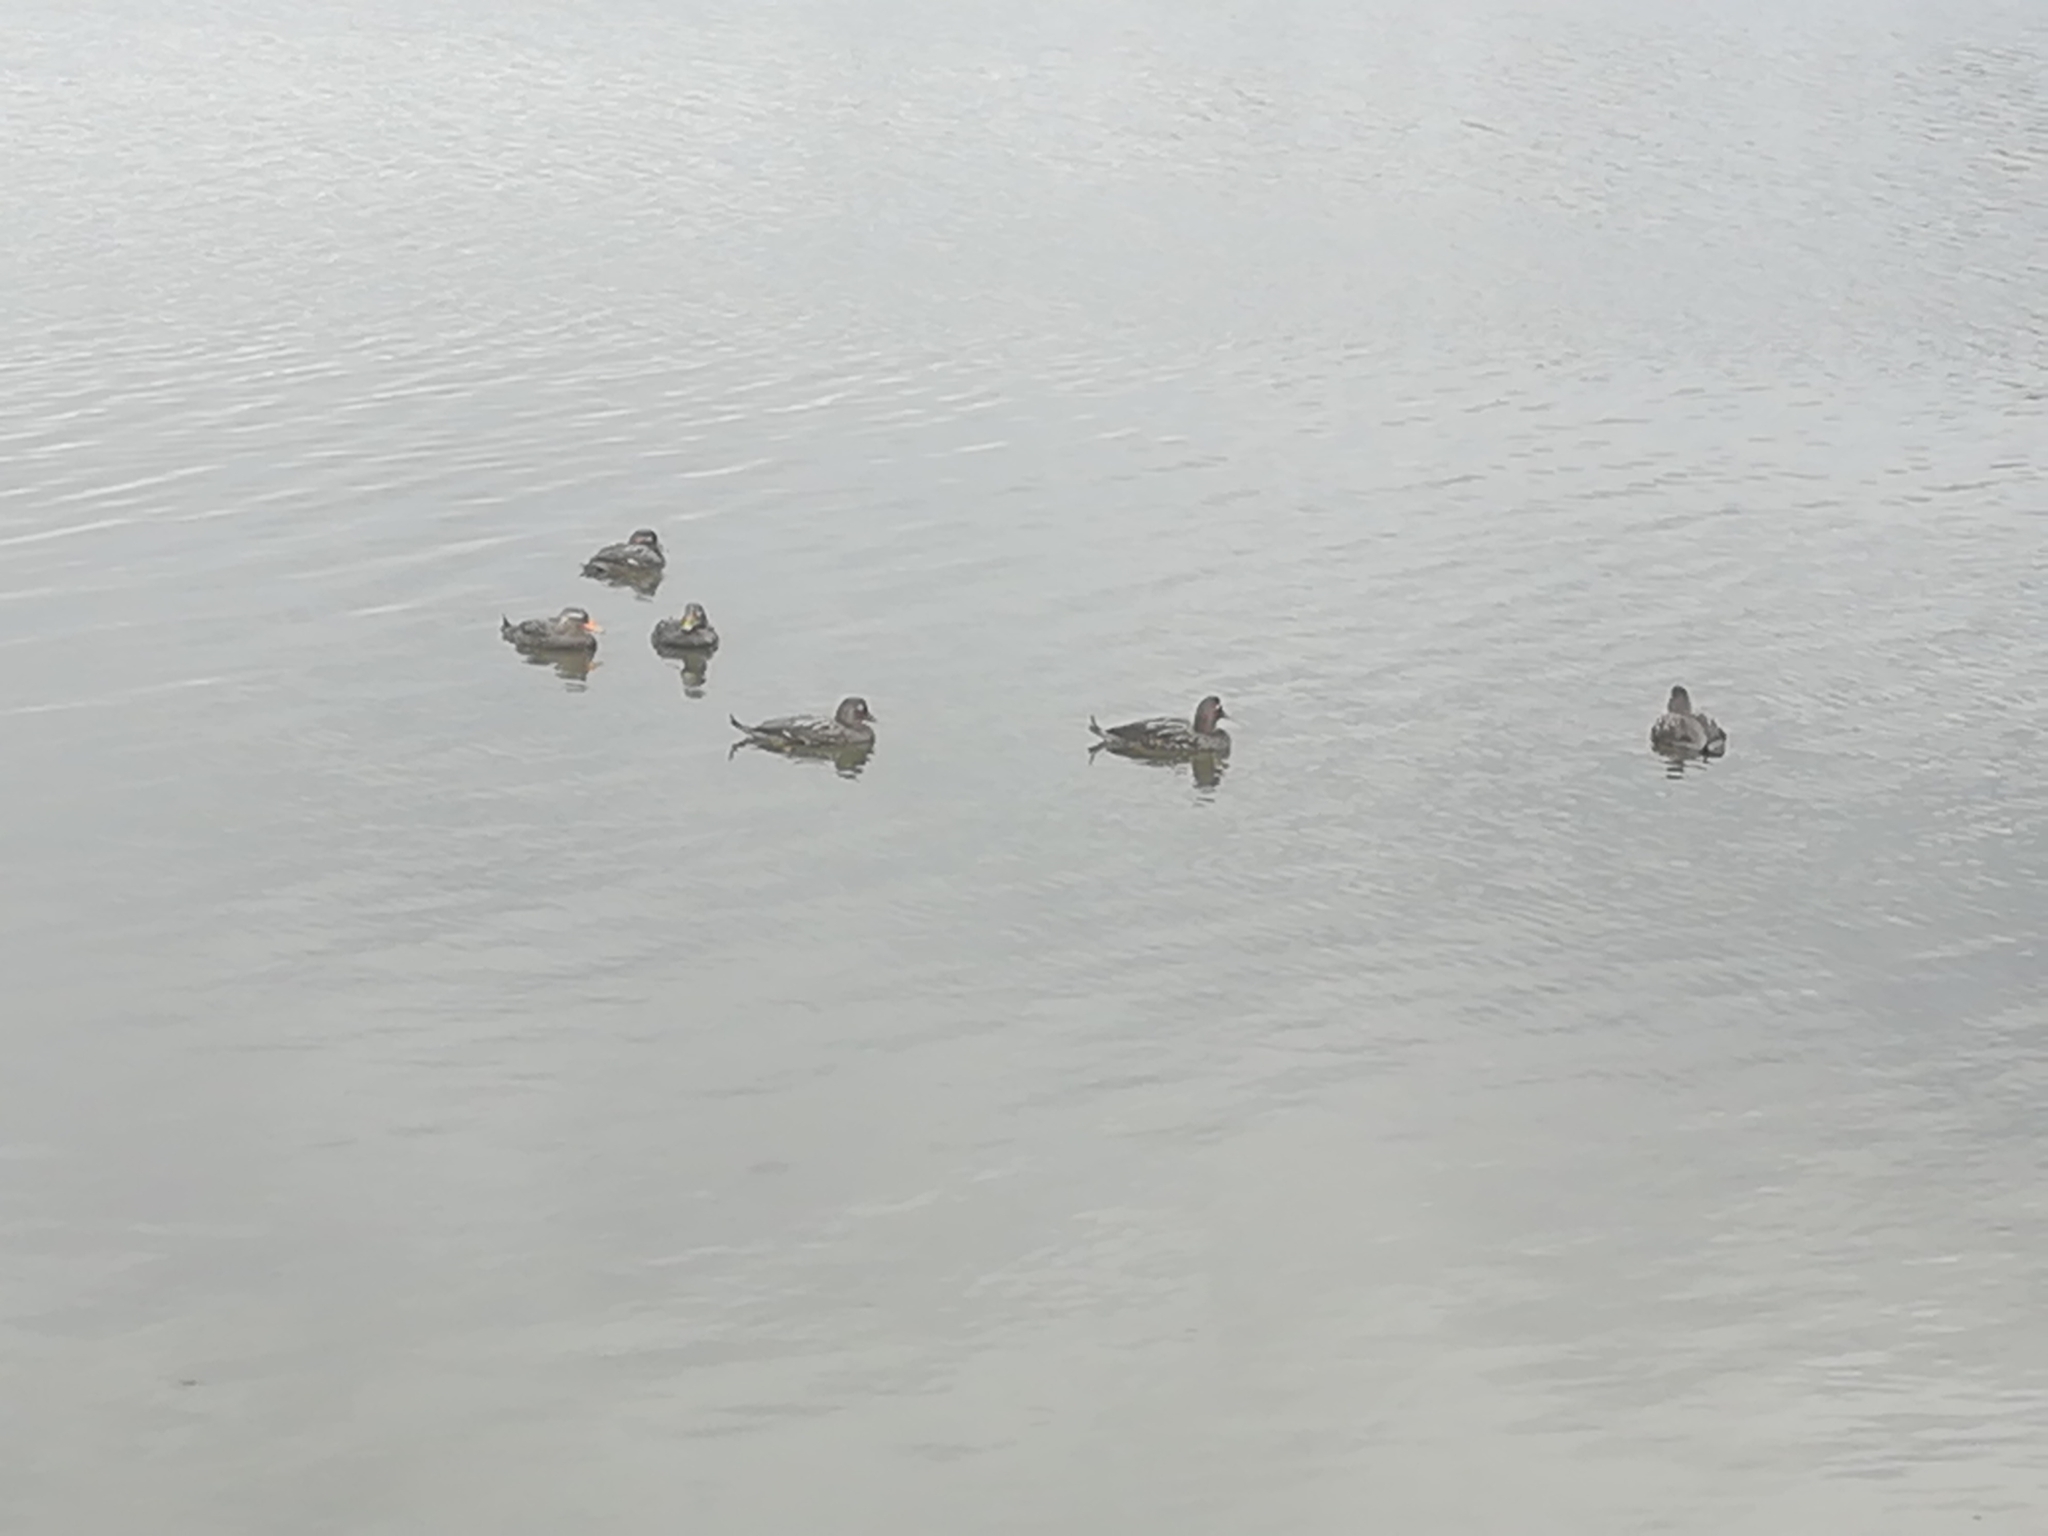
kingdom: Animalia
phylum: Chordata
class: Aves
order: Anseriformes
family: Anatidae
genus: Tachyeres
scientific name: Tachyeres patachonicus
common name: Flying steamer duck
